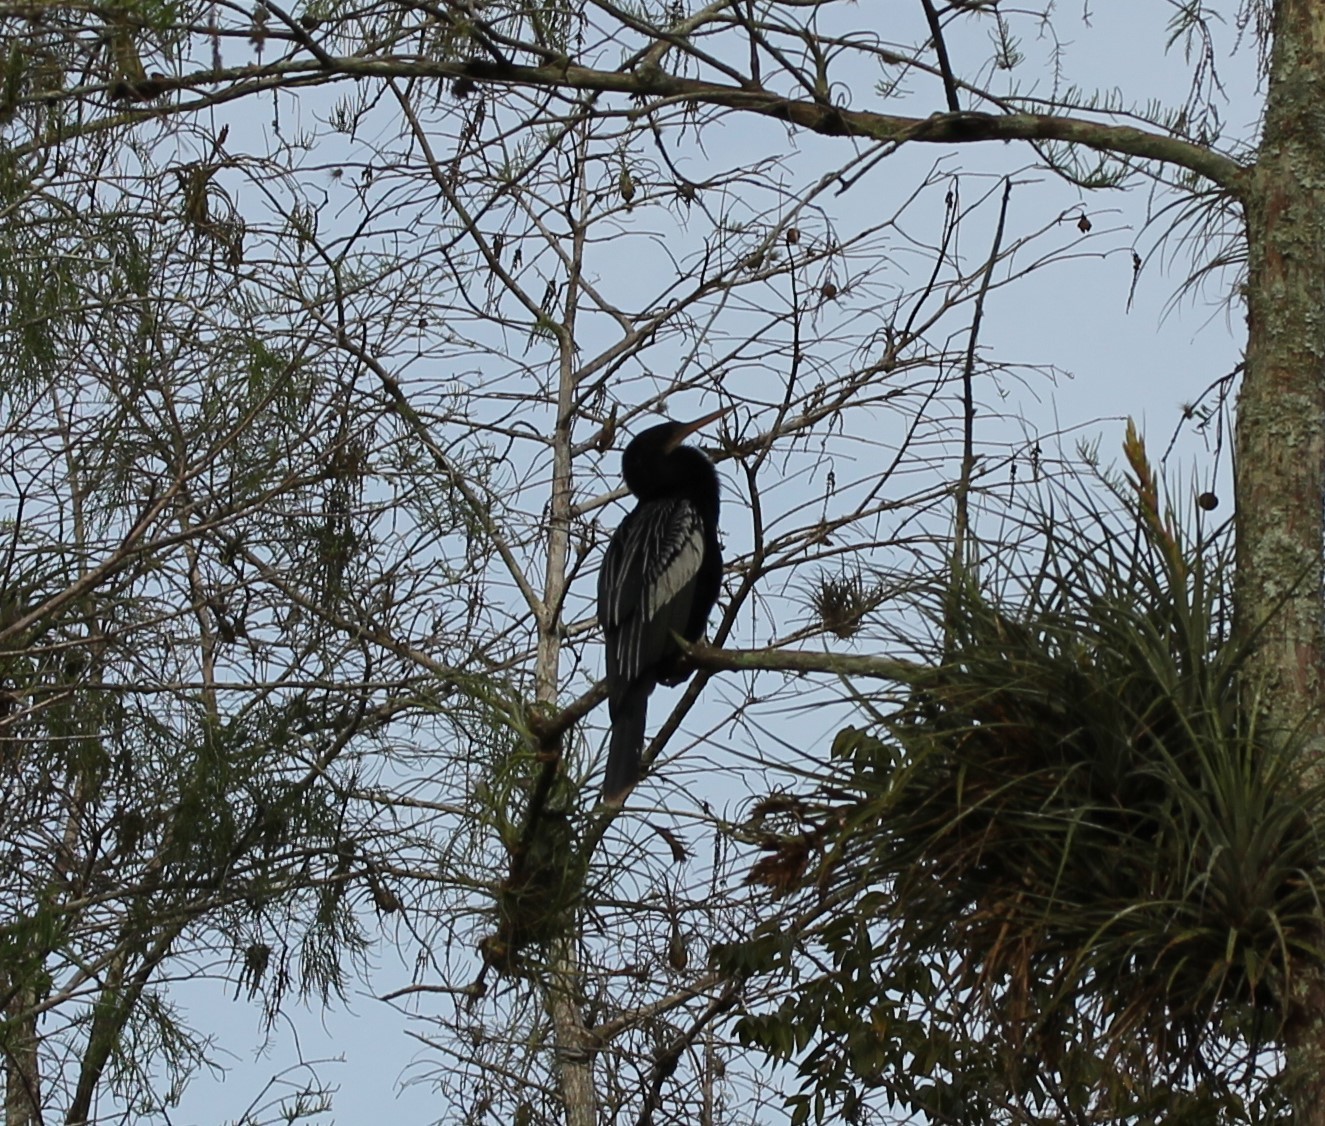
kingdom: Animalia
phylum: Chordata
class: Aves
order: Suliformes
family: Anhingidae
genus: Anhinga
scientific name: Anhinga anhinga
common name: Anhinga
